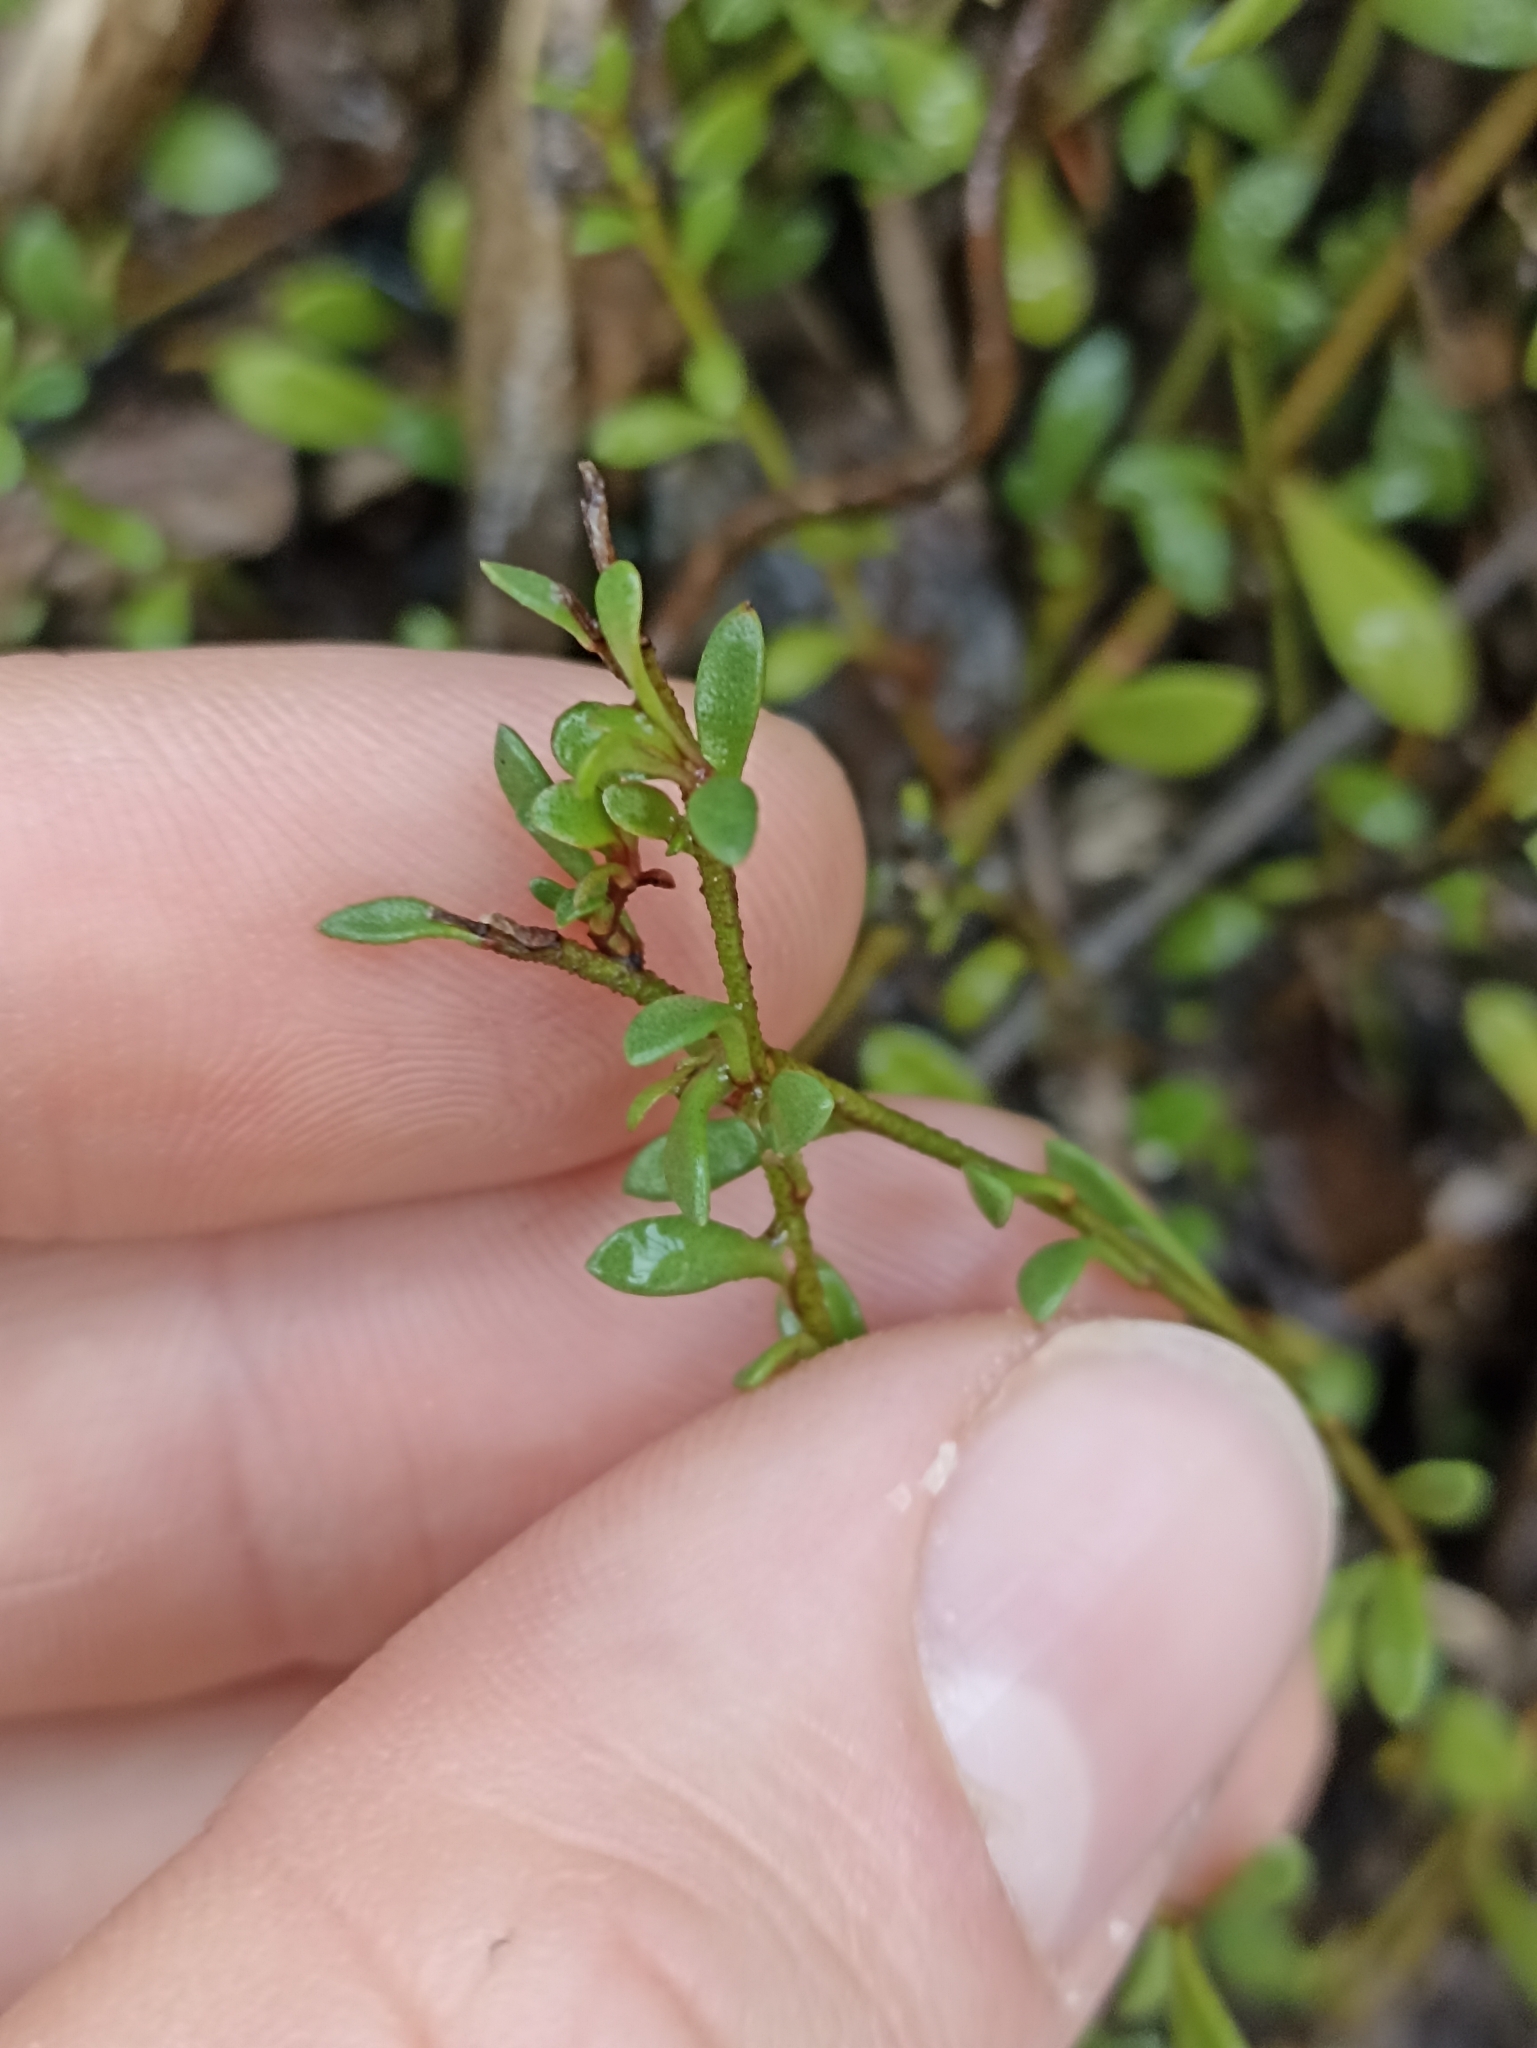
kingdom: Plantae
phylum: Tracheophyta
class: Magnoliopsida
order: Ericales
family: Primulaceae
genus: Samolus
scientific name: Samolus repens
